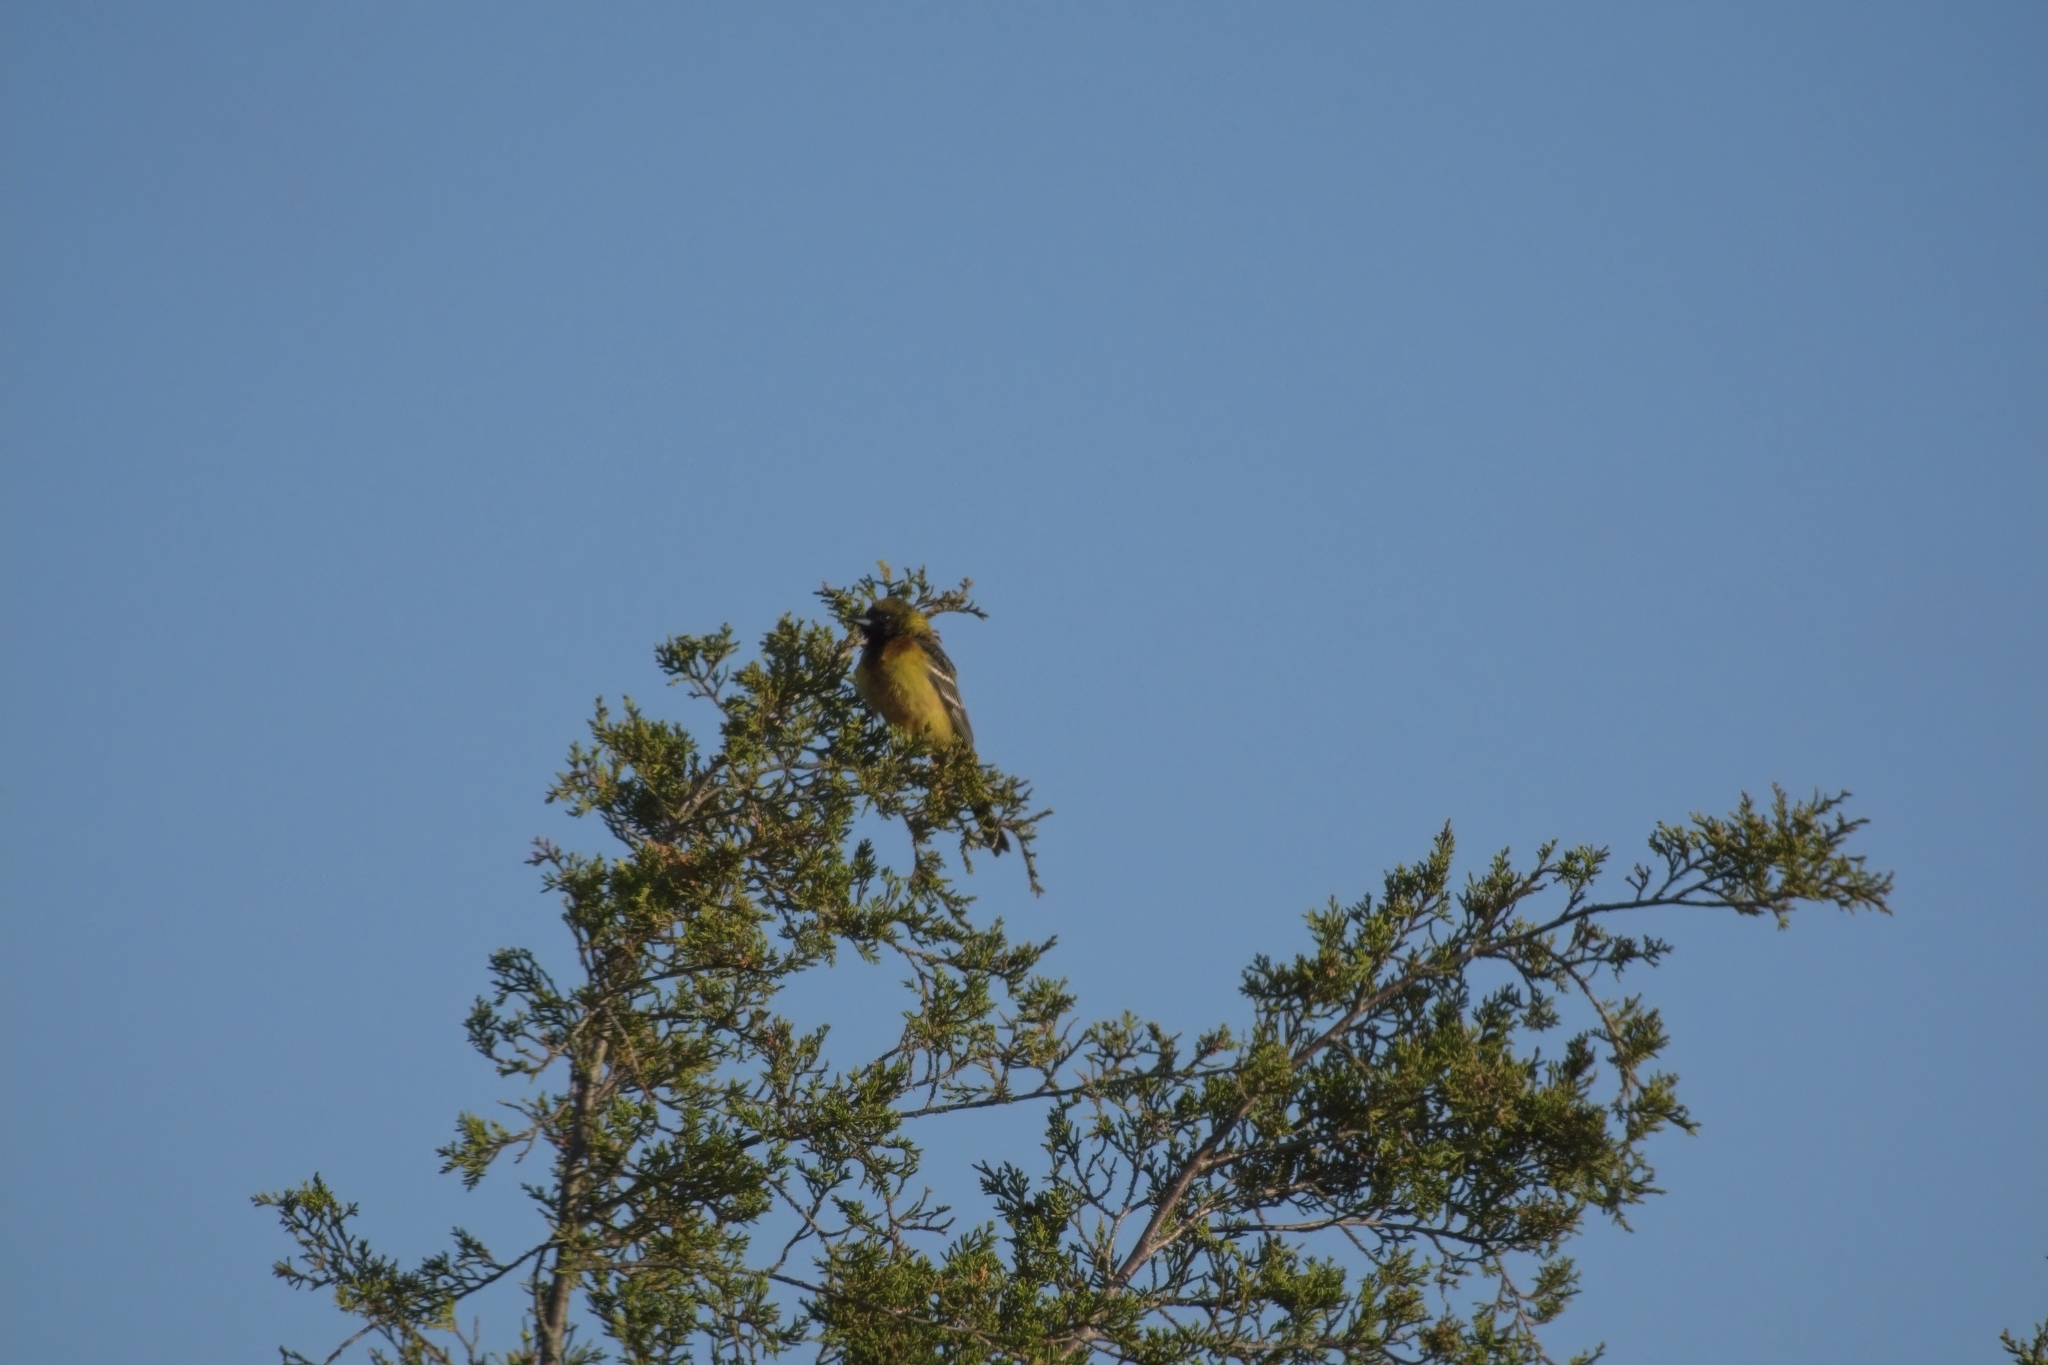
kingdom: Animalia
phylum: Chordata
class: Aves
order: Passeriformes
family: Icteridae
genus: Icterus
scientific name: Icterus spurius
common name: Orchard oriole
